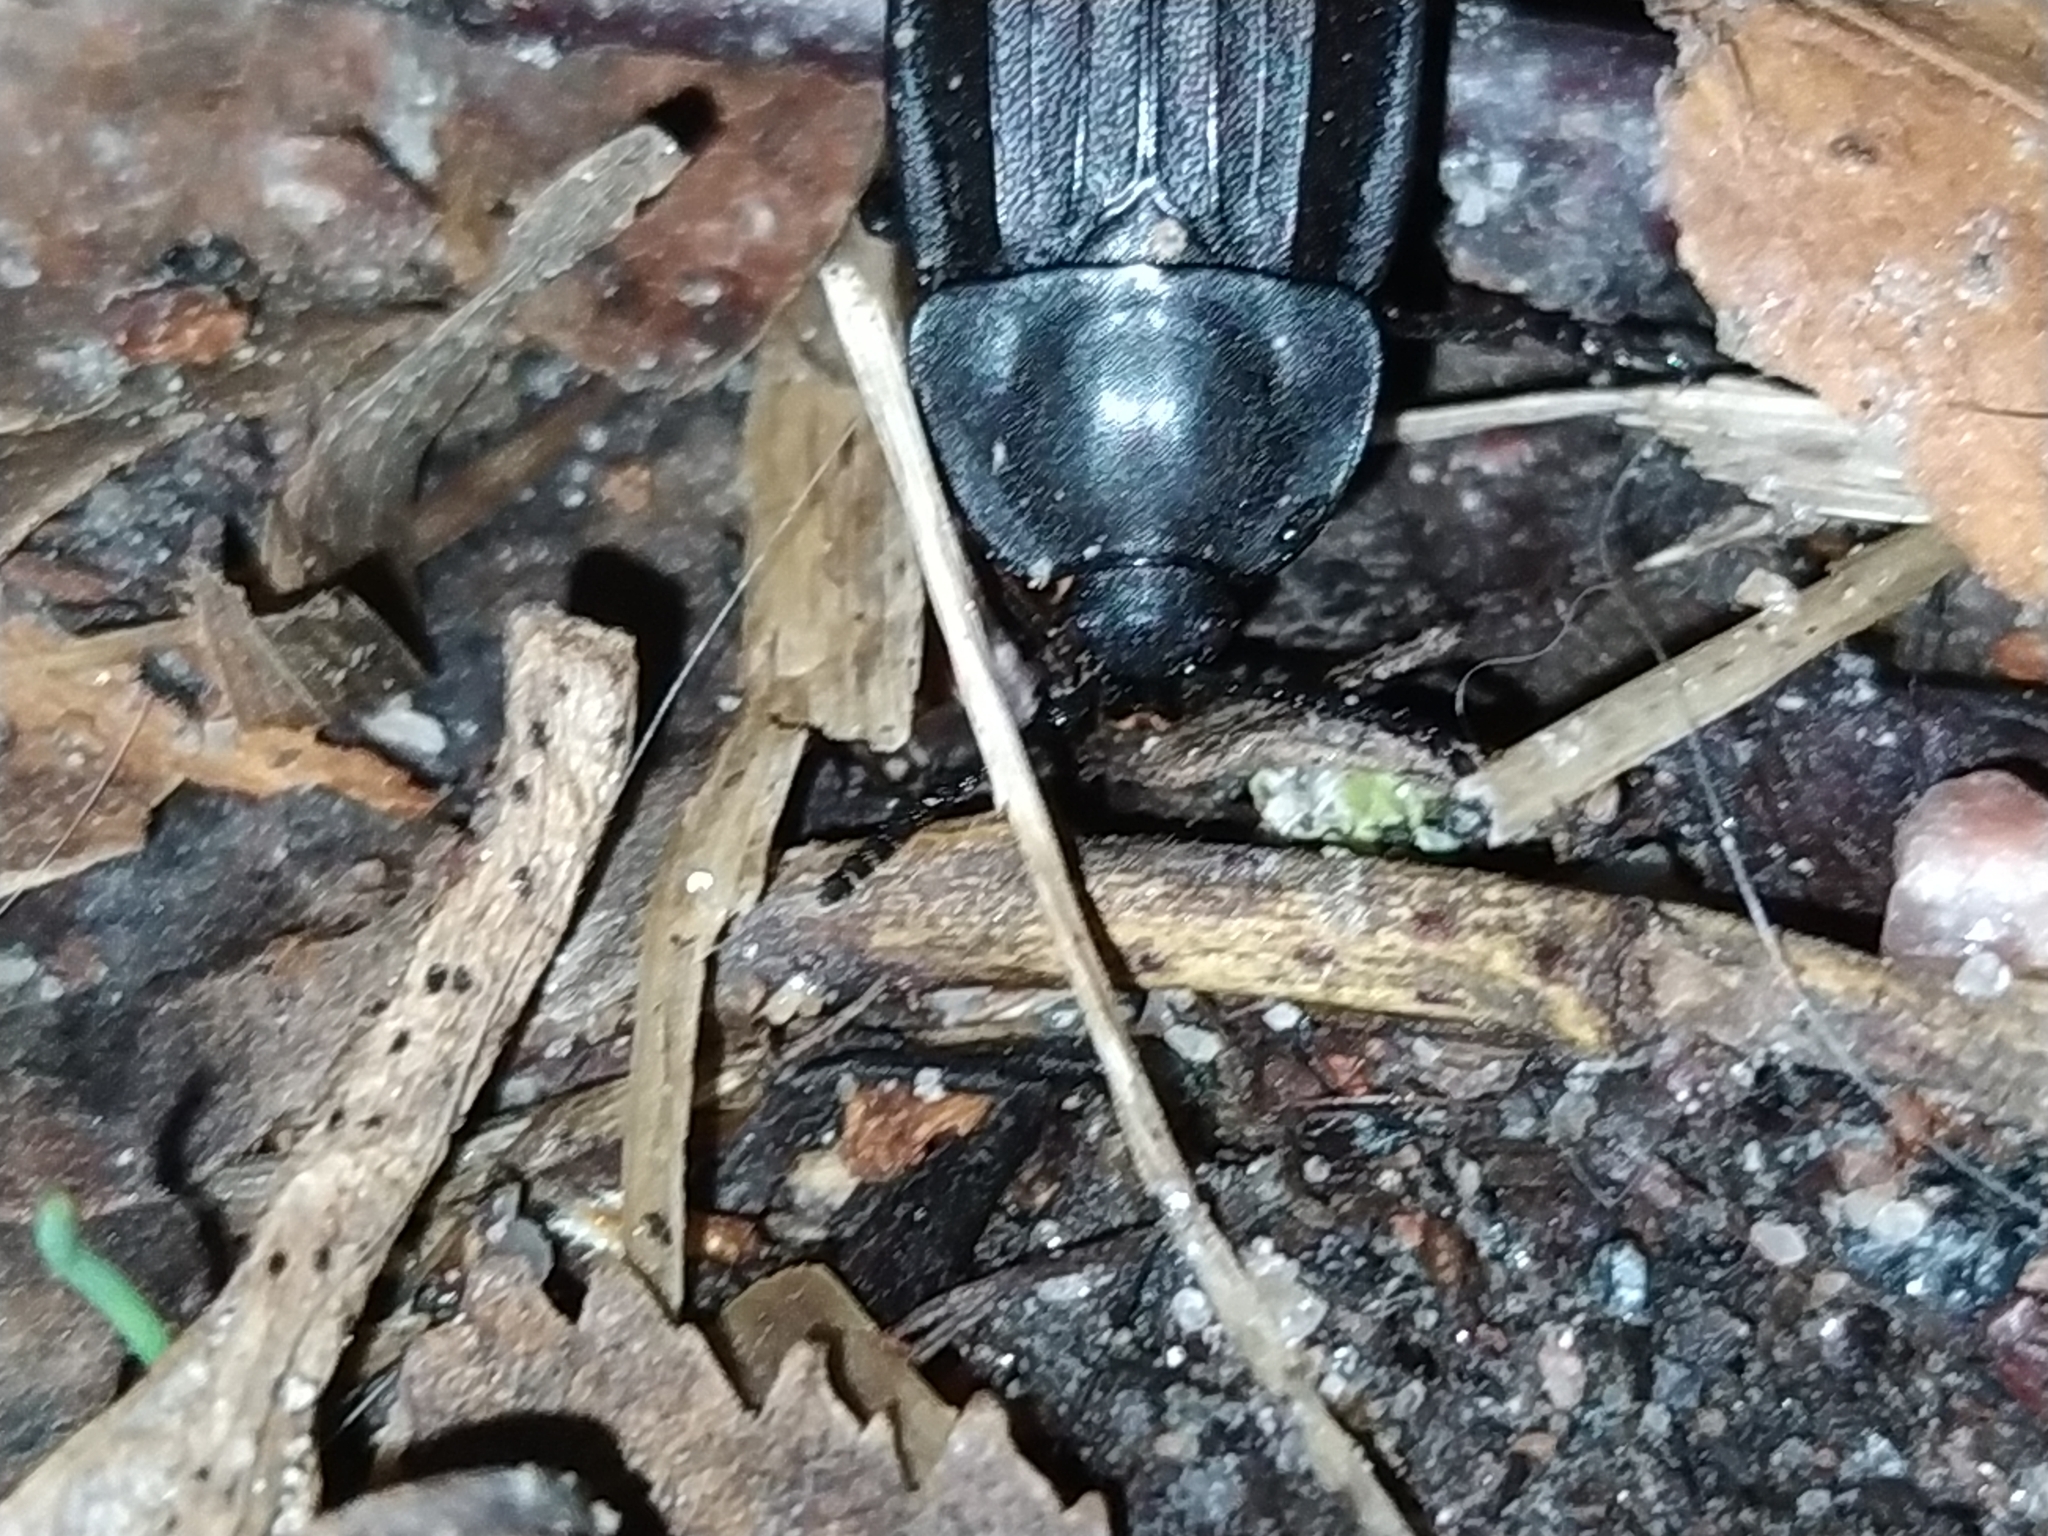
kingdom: Animalia
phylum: Arthropoda
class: Insecta
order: Coleoptera
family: Staphylinidae
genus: Silpha
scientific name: Silpha carinata
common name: Silphid beetle
